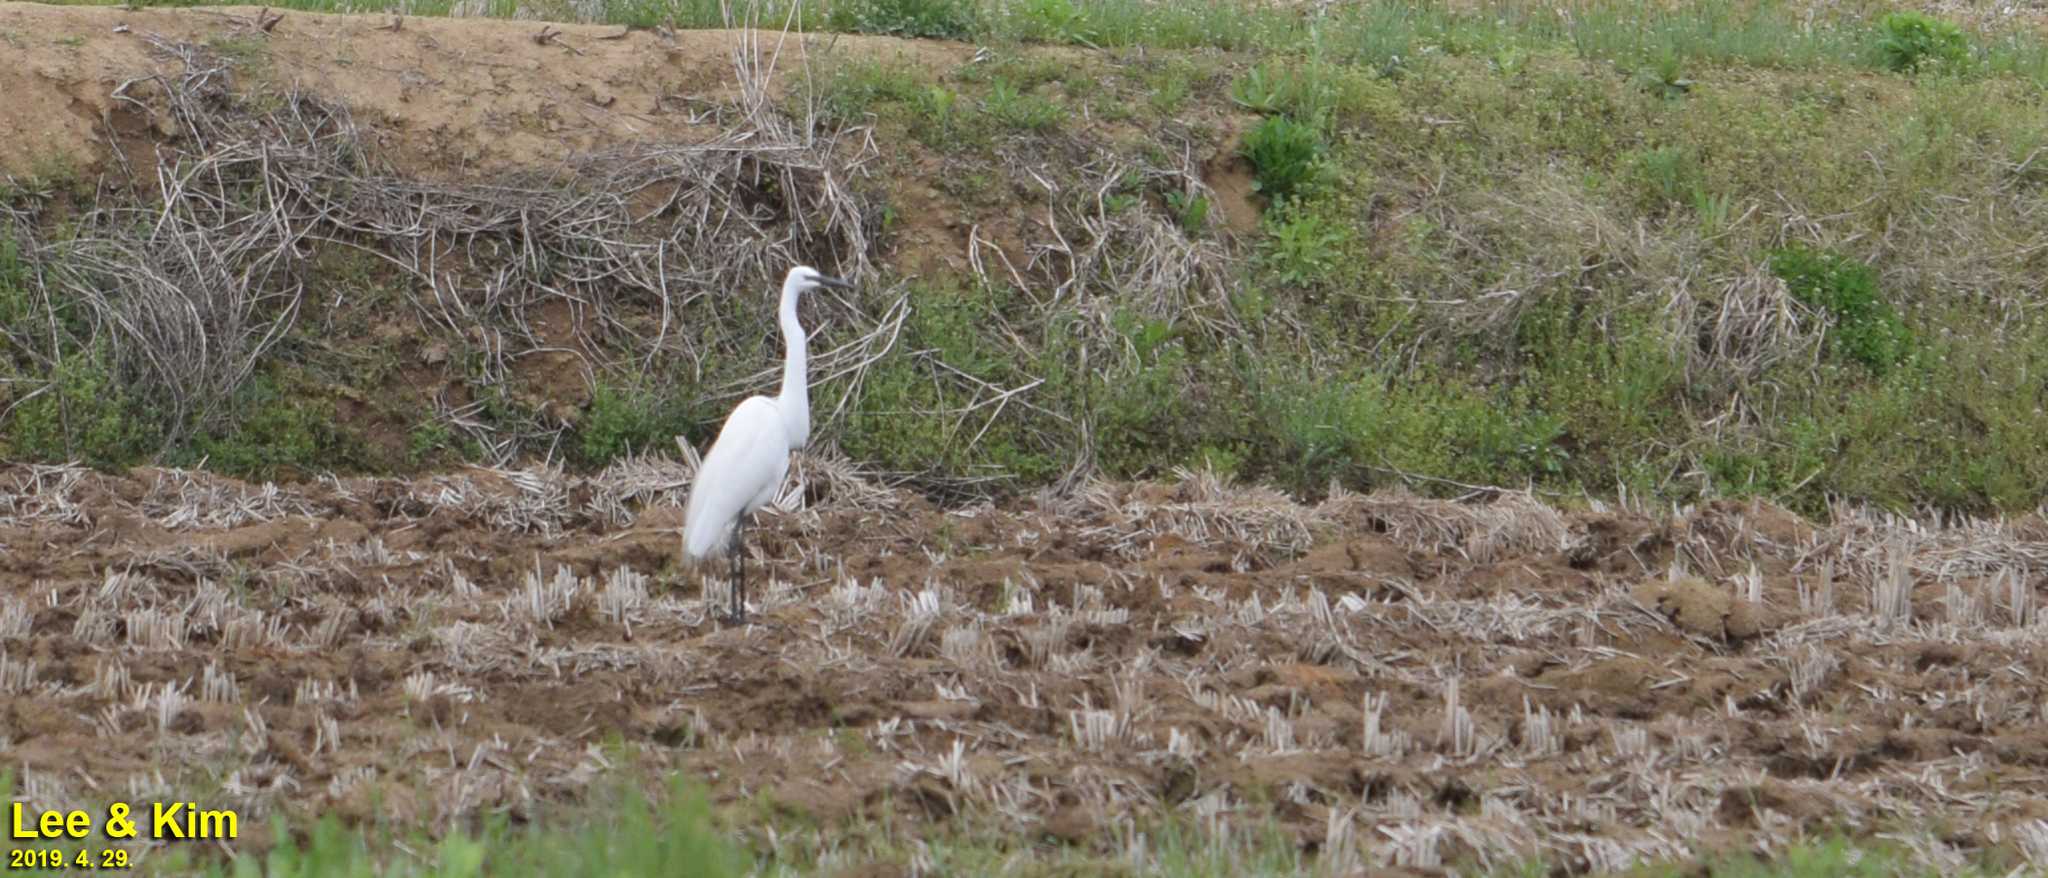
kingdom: Animalia
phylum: Chordata
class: Aves
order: Pelecaniformes
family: Ardeidae
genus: Ardea
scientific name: Ardea alba
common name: Great egret
